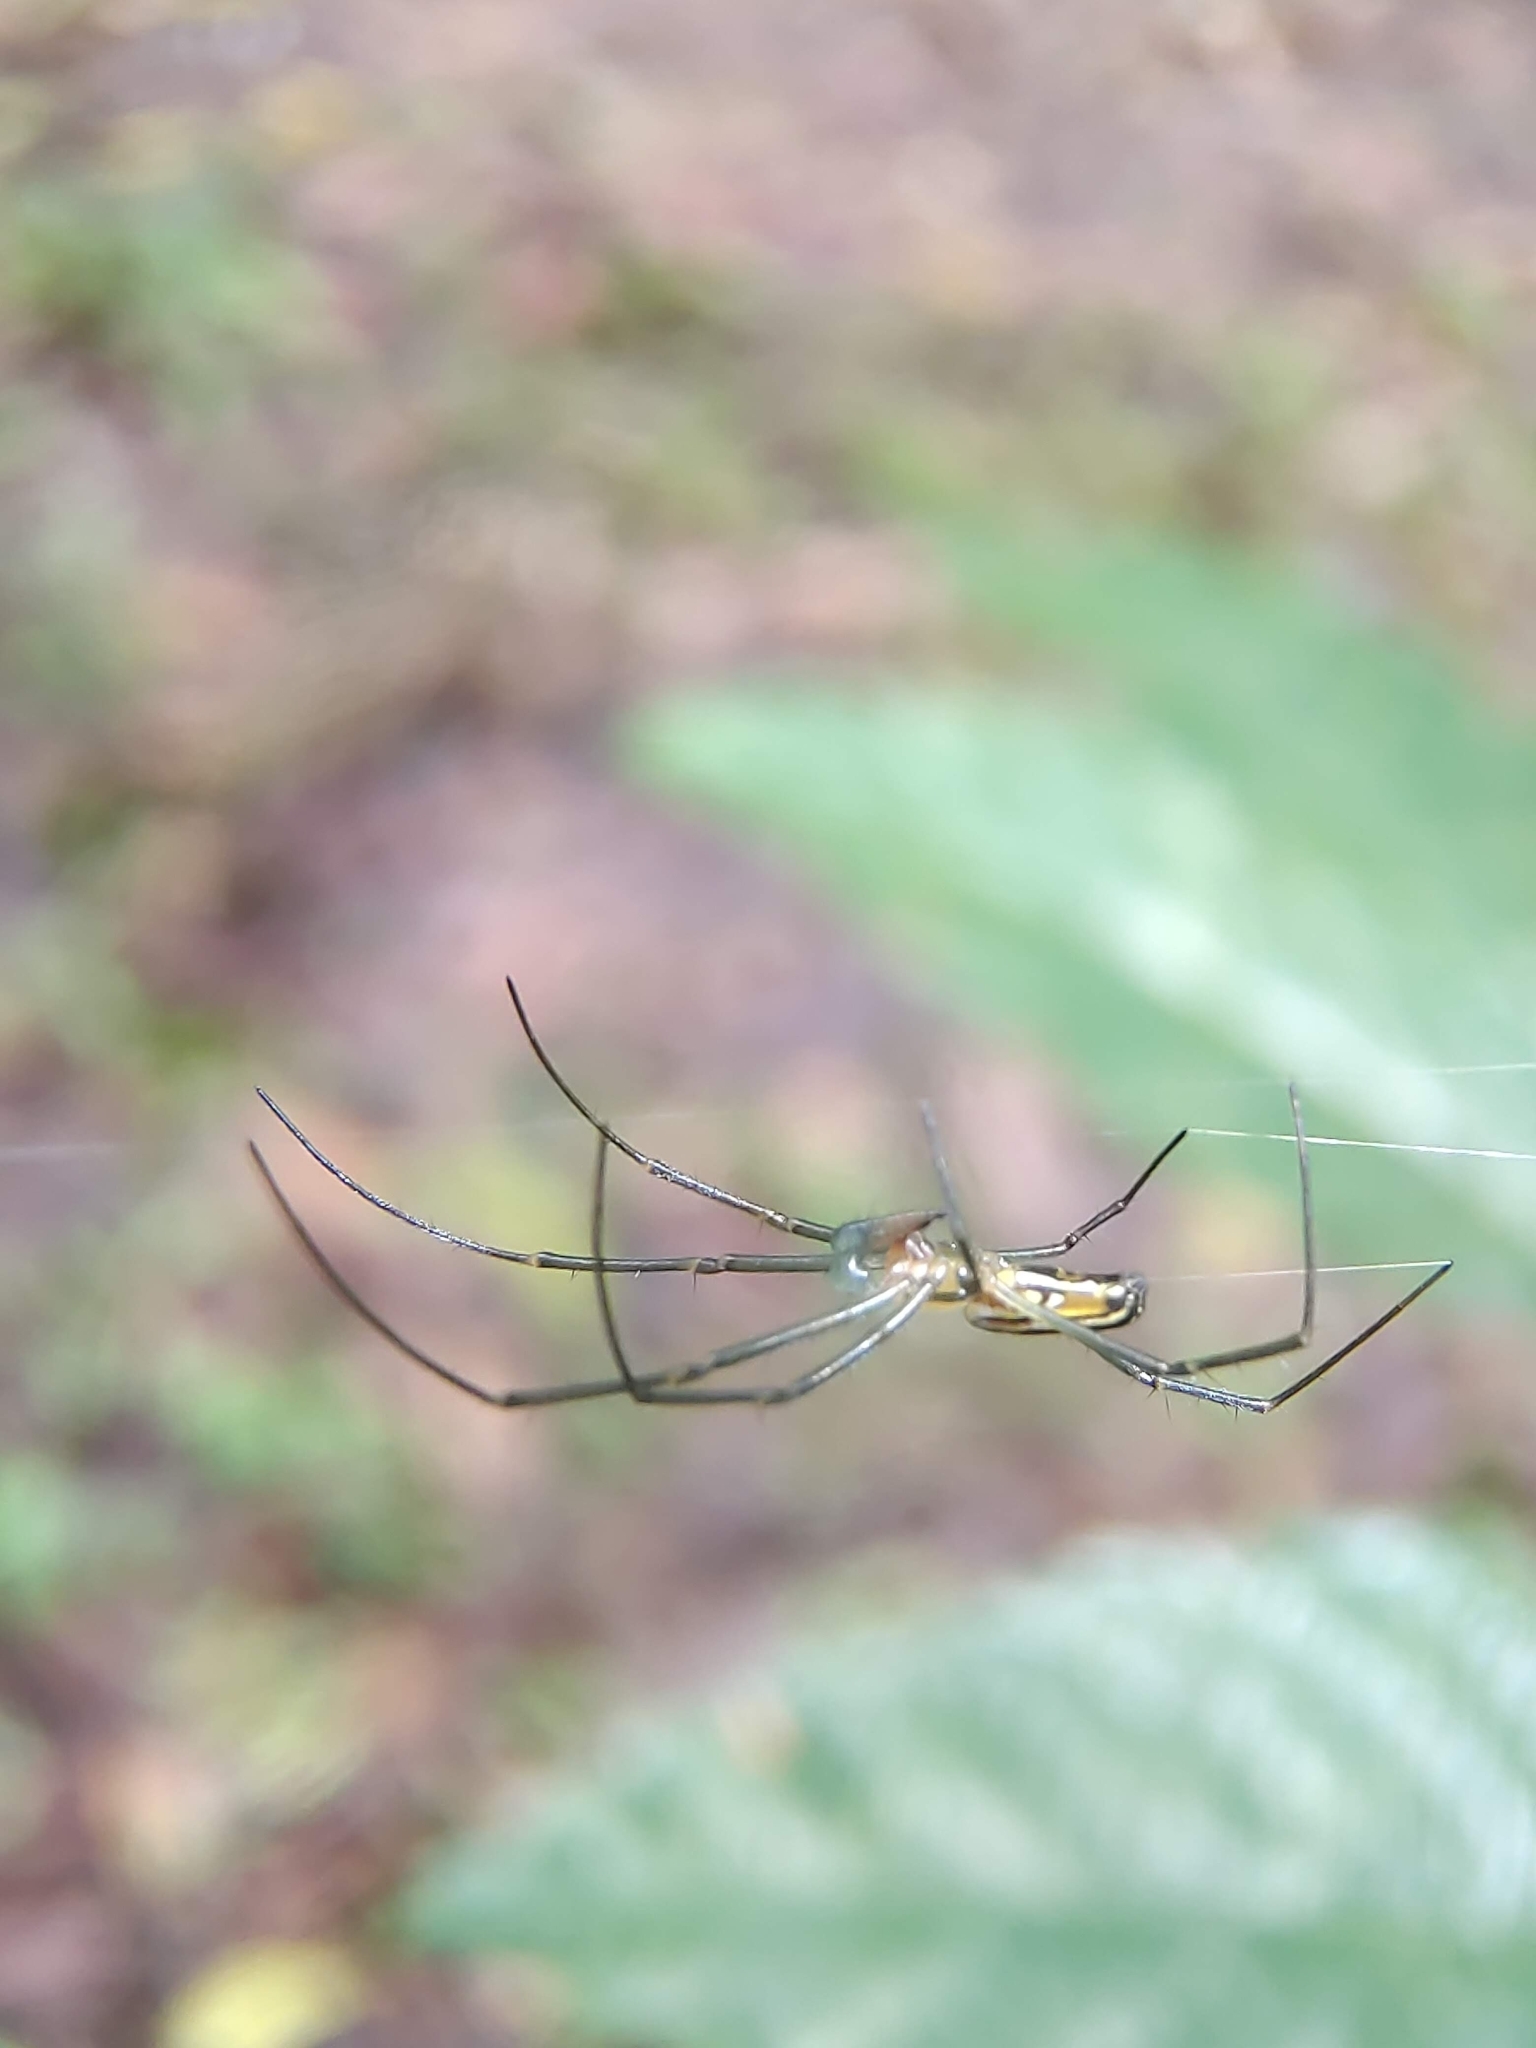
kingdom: Animalia
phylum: Arthropoda
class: Arachnida
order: Araneae
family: Araneidae
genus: Nephila
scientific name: Nephila pilipes
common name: Giant golden orb weaver
